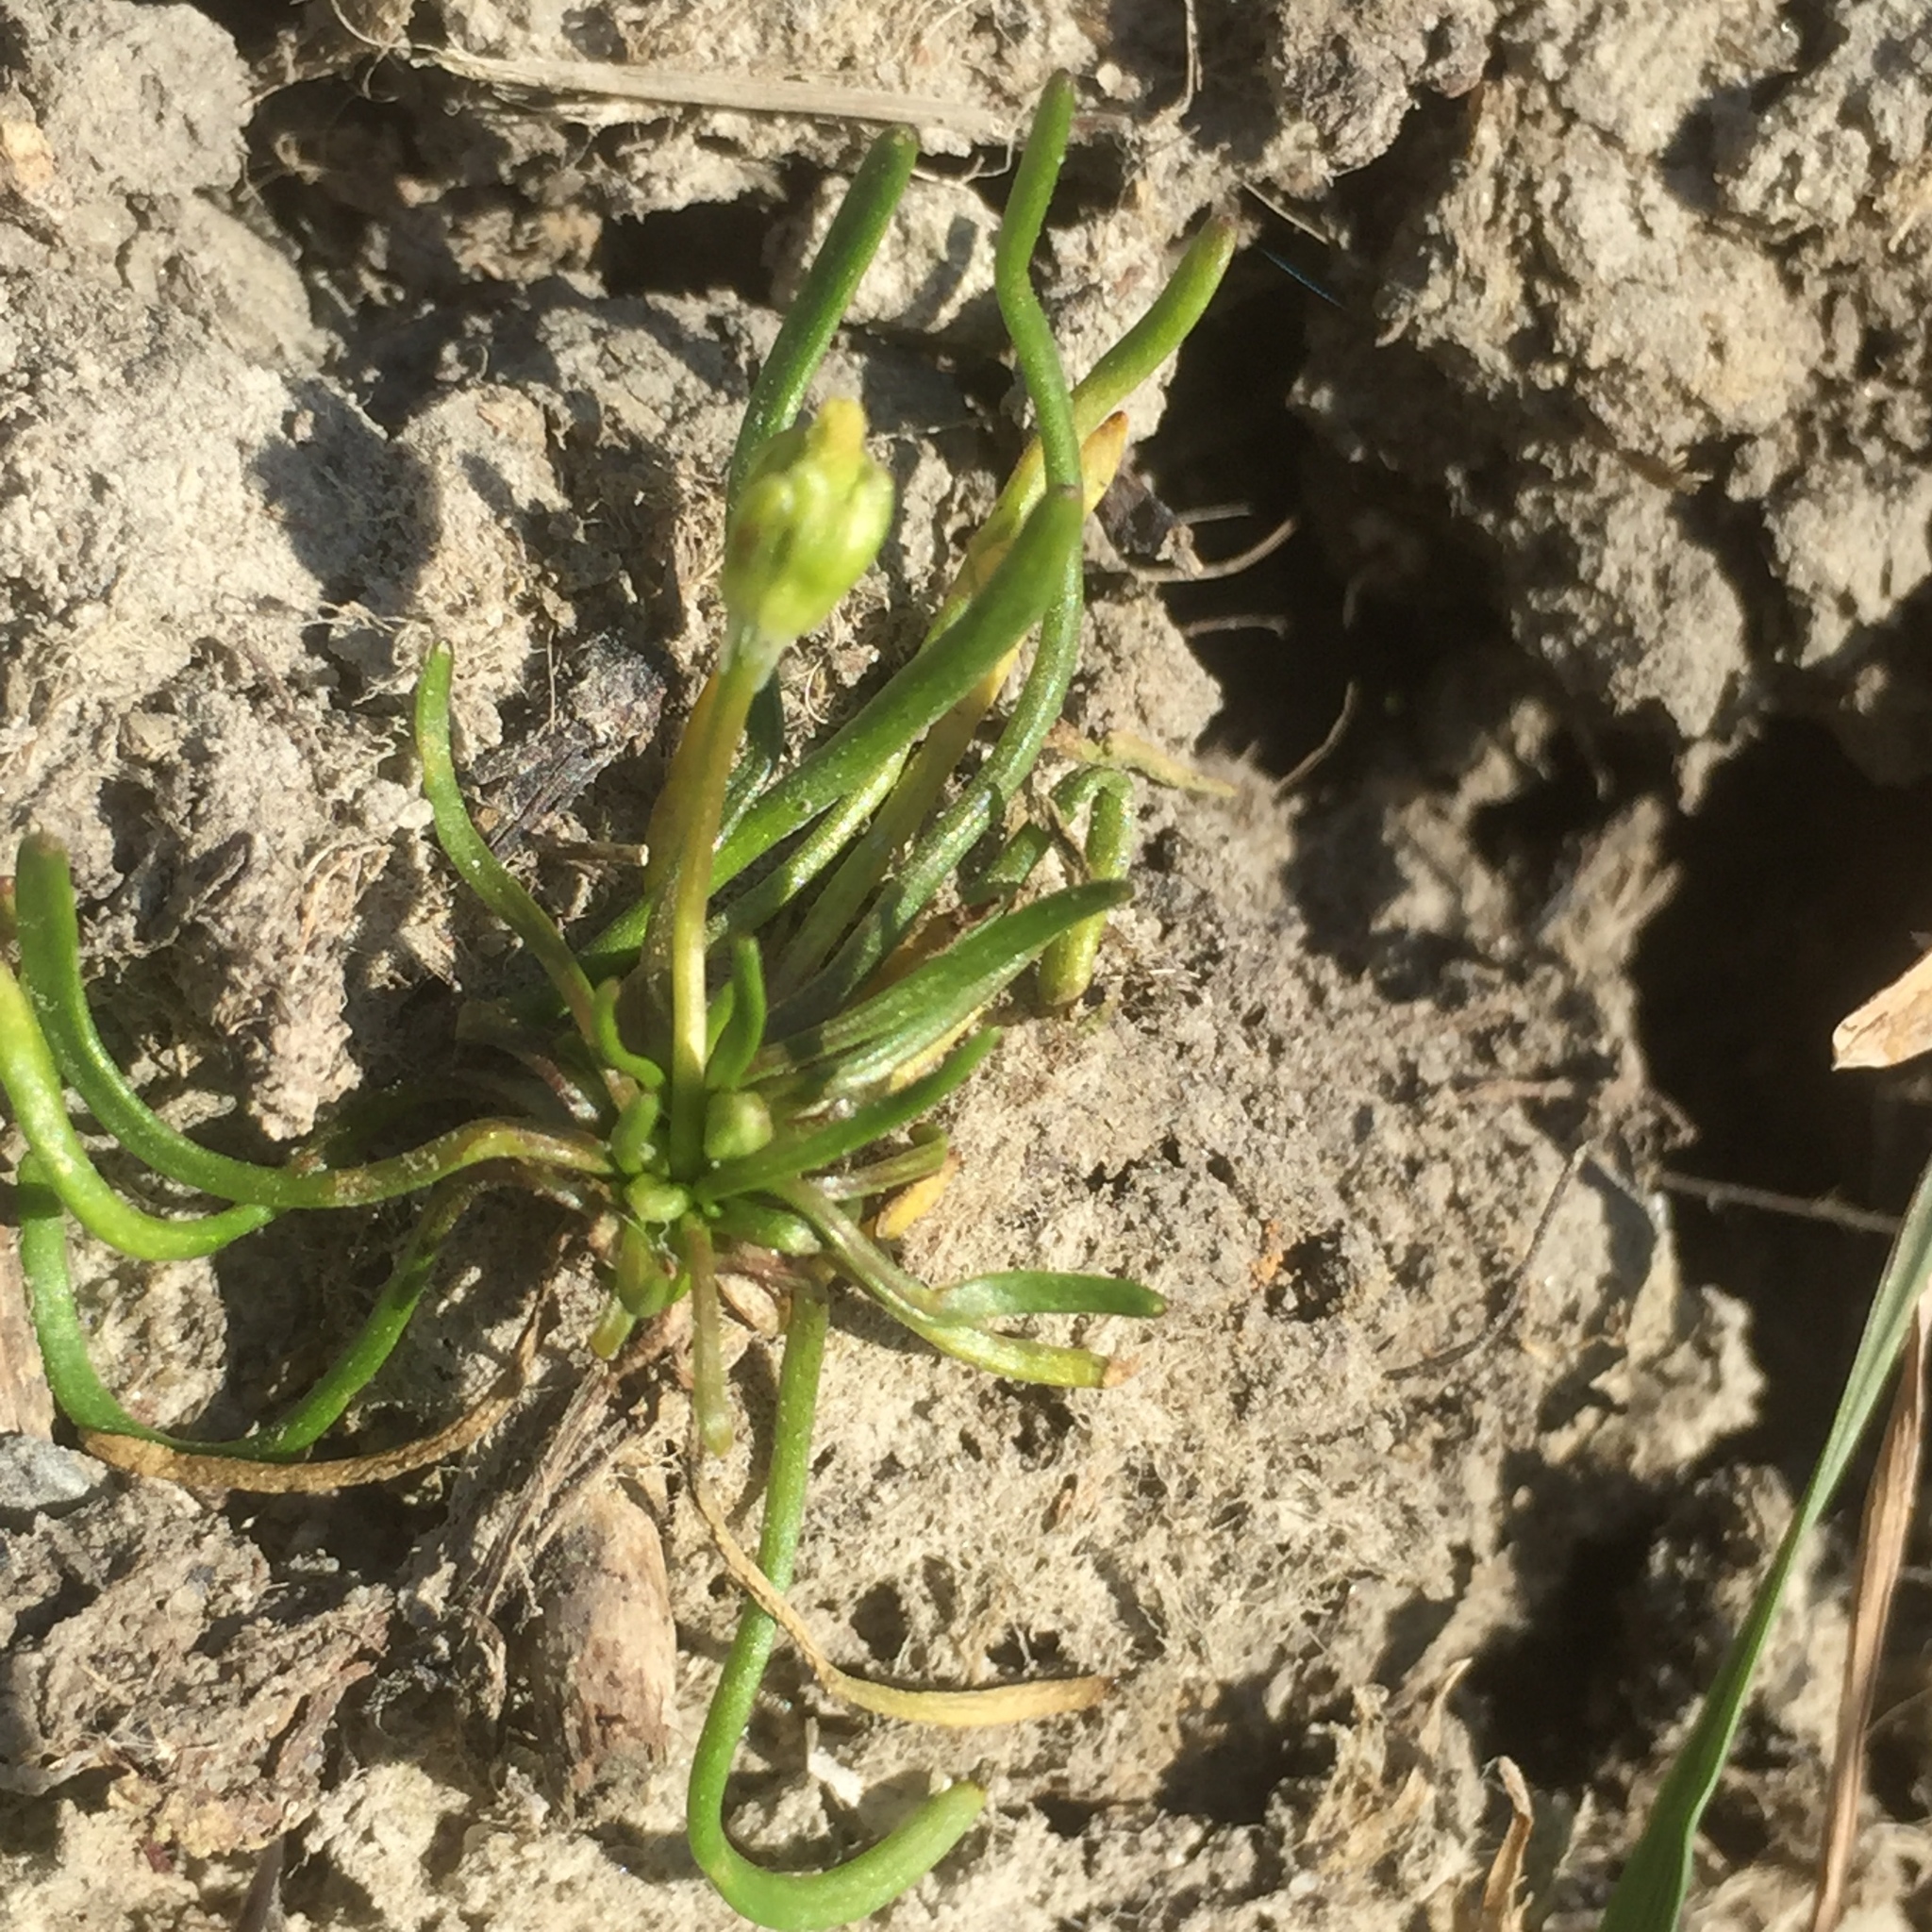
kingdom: Plantae
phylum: Tracheophyta
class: Magnoliopsida
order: Ranunculales
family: Ranunculaceae
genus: Myosurus
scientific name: Myosurus minimus
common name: Mousetail
